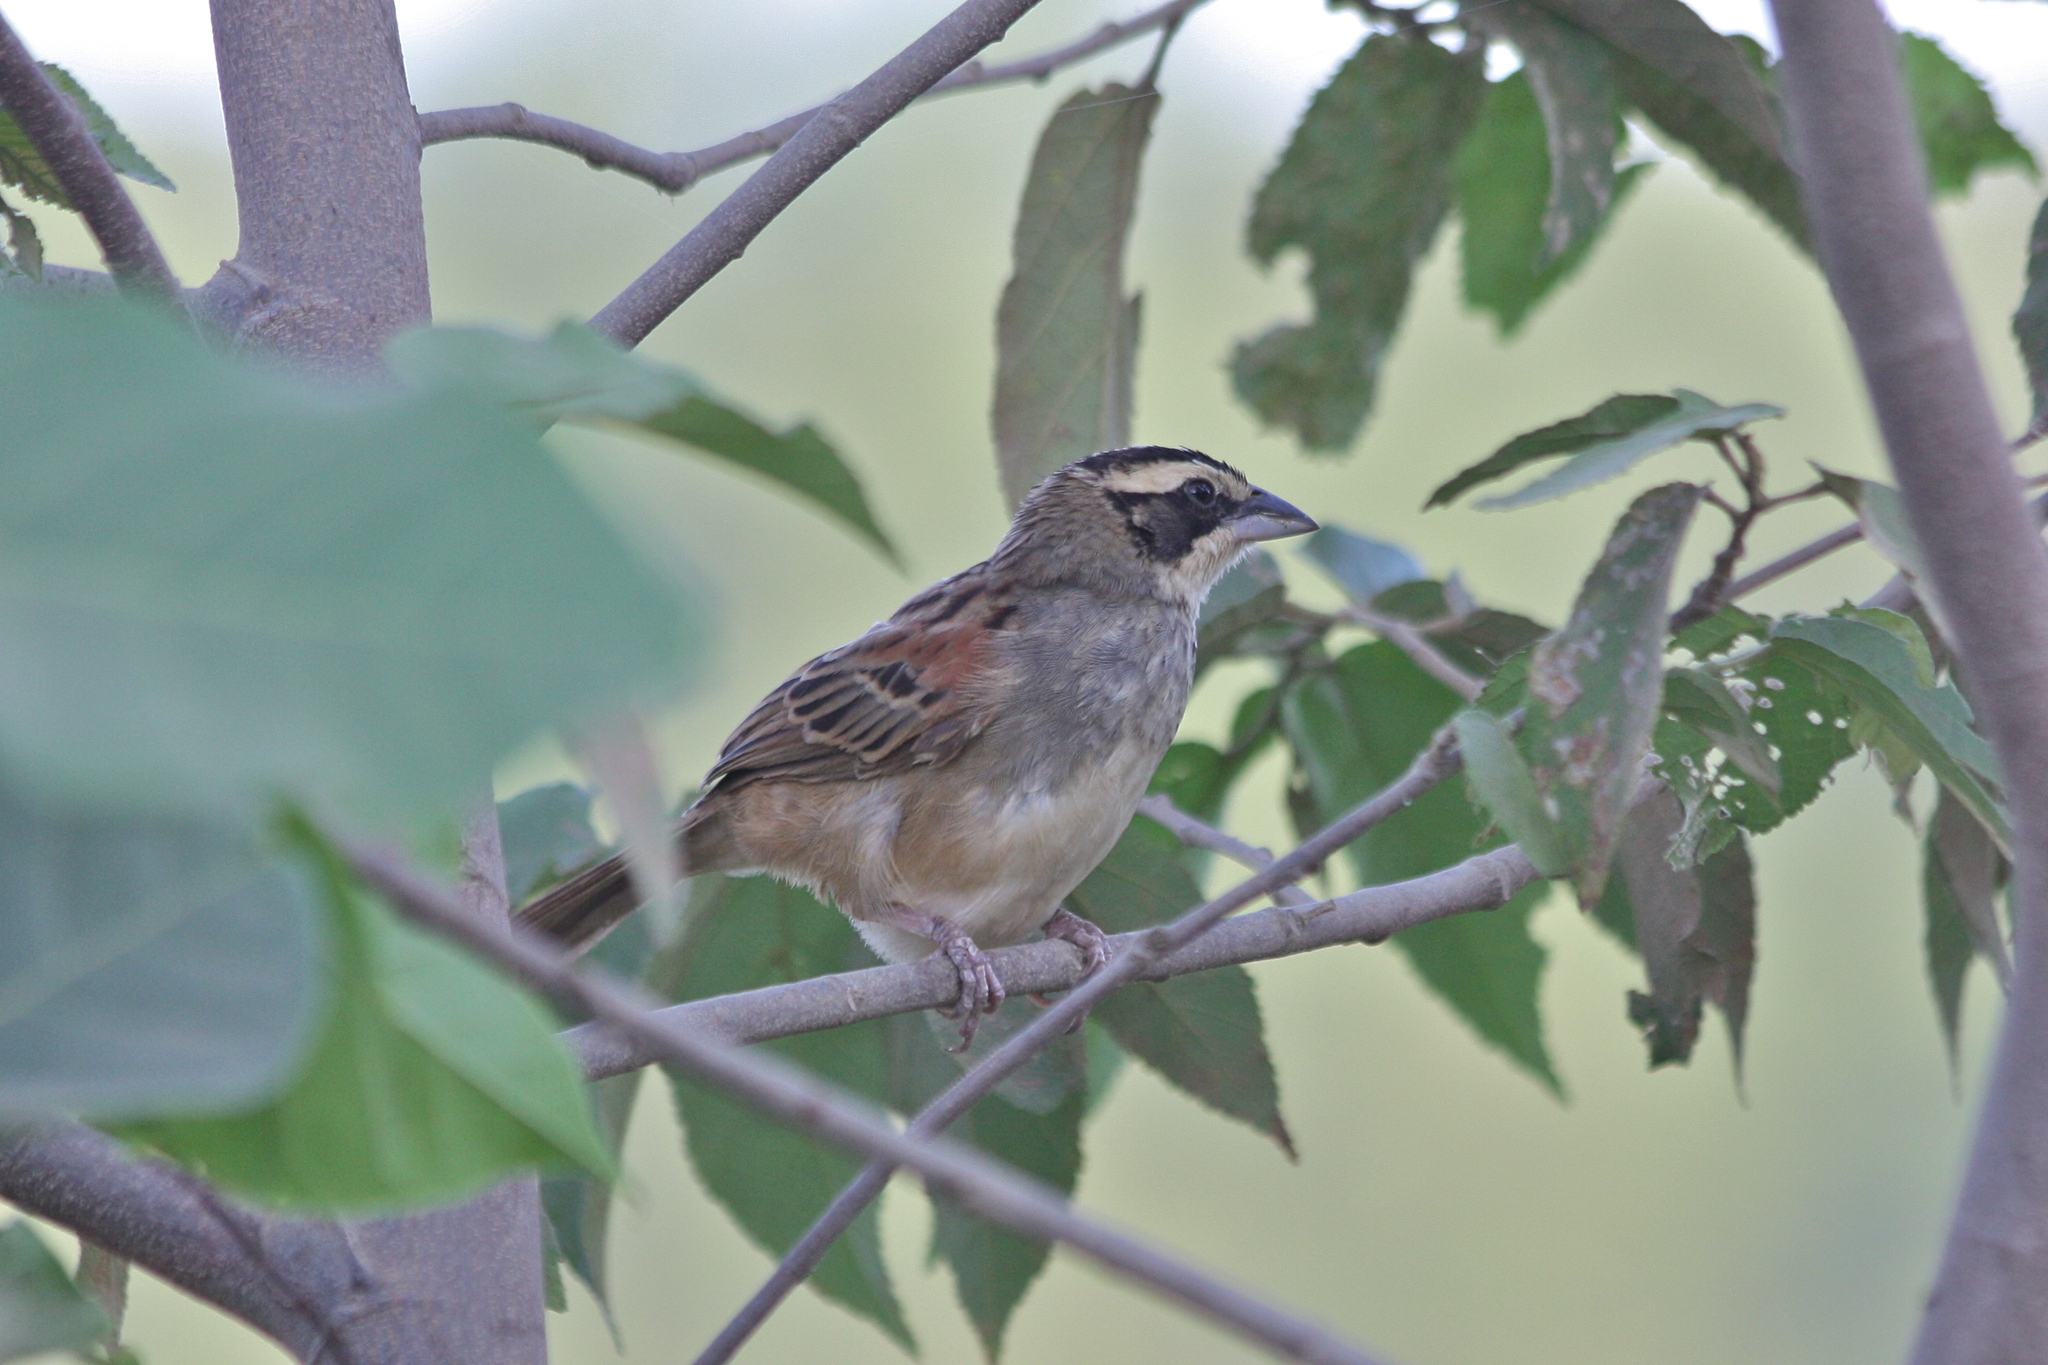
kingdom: Animalia
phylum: Chordata
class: Aves
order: Passeriformes
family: Passerellidae
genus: Peucaea
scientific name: Peucaea ruficauda
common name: Stripe-headed sparrow
